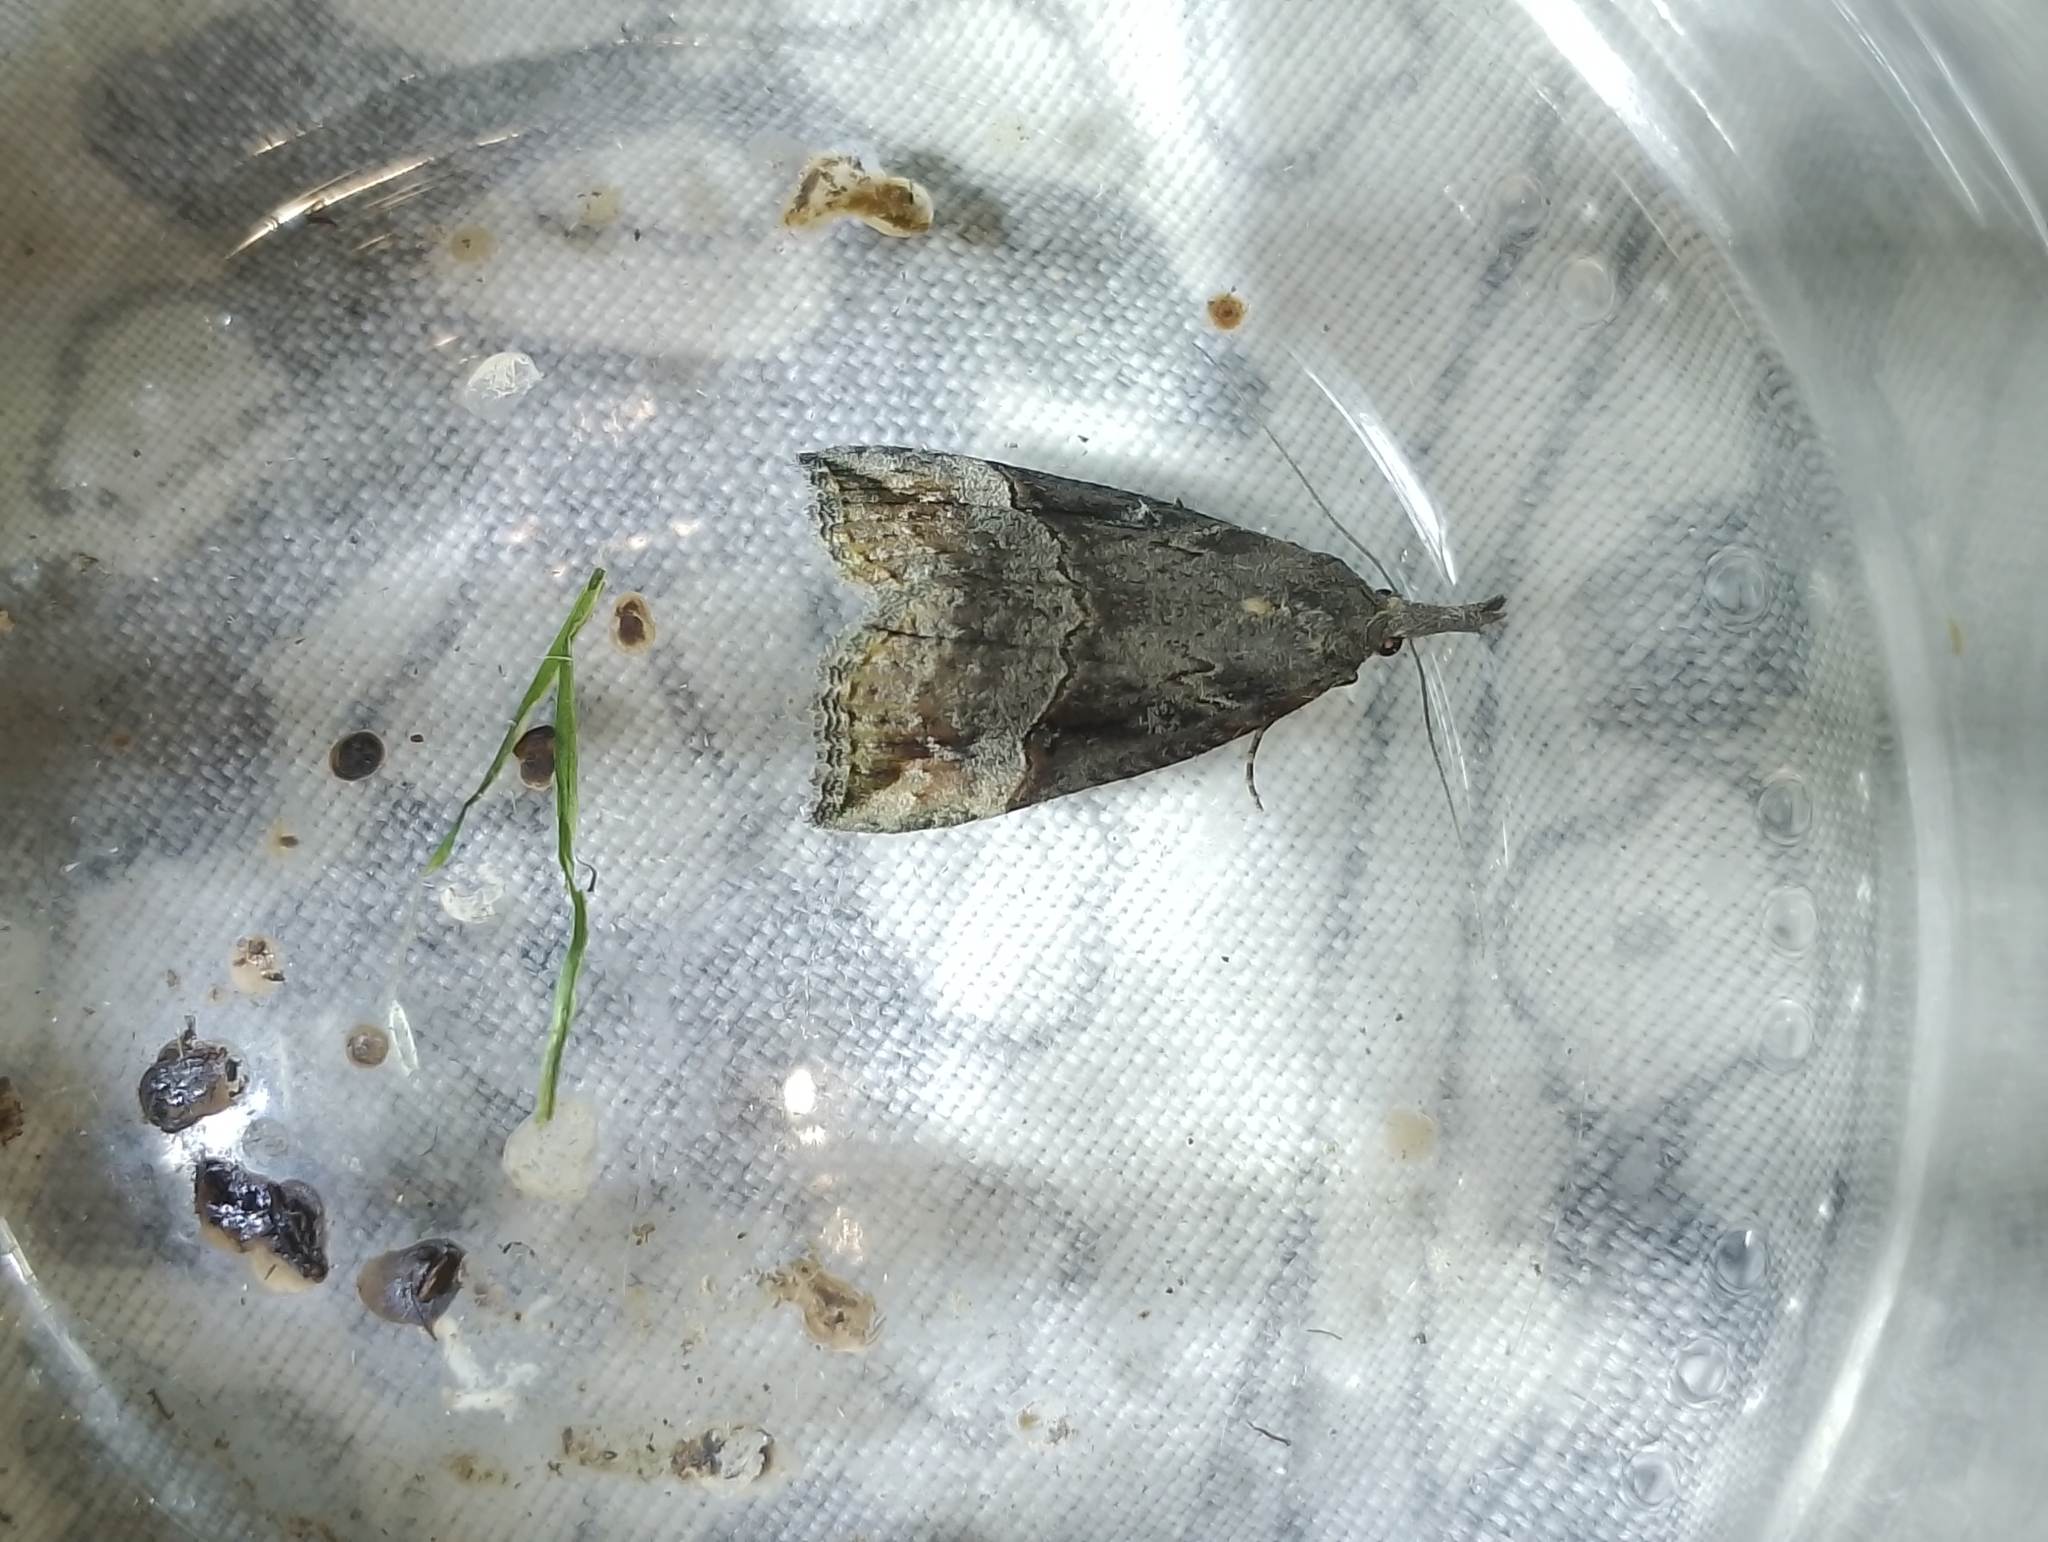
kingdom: Animalia
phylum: Arthropoda
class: Insecta
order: Lepidoptera
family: Erebidae
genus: Hypena
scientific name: Hypena rostralis
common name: Buttoned snout
